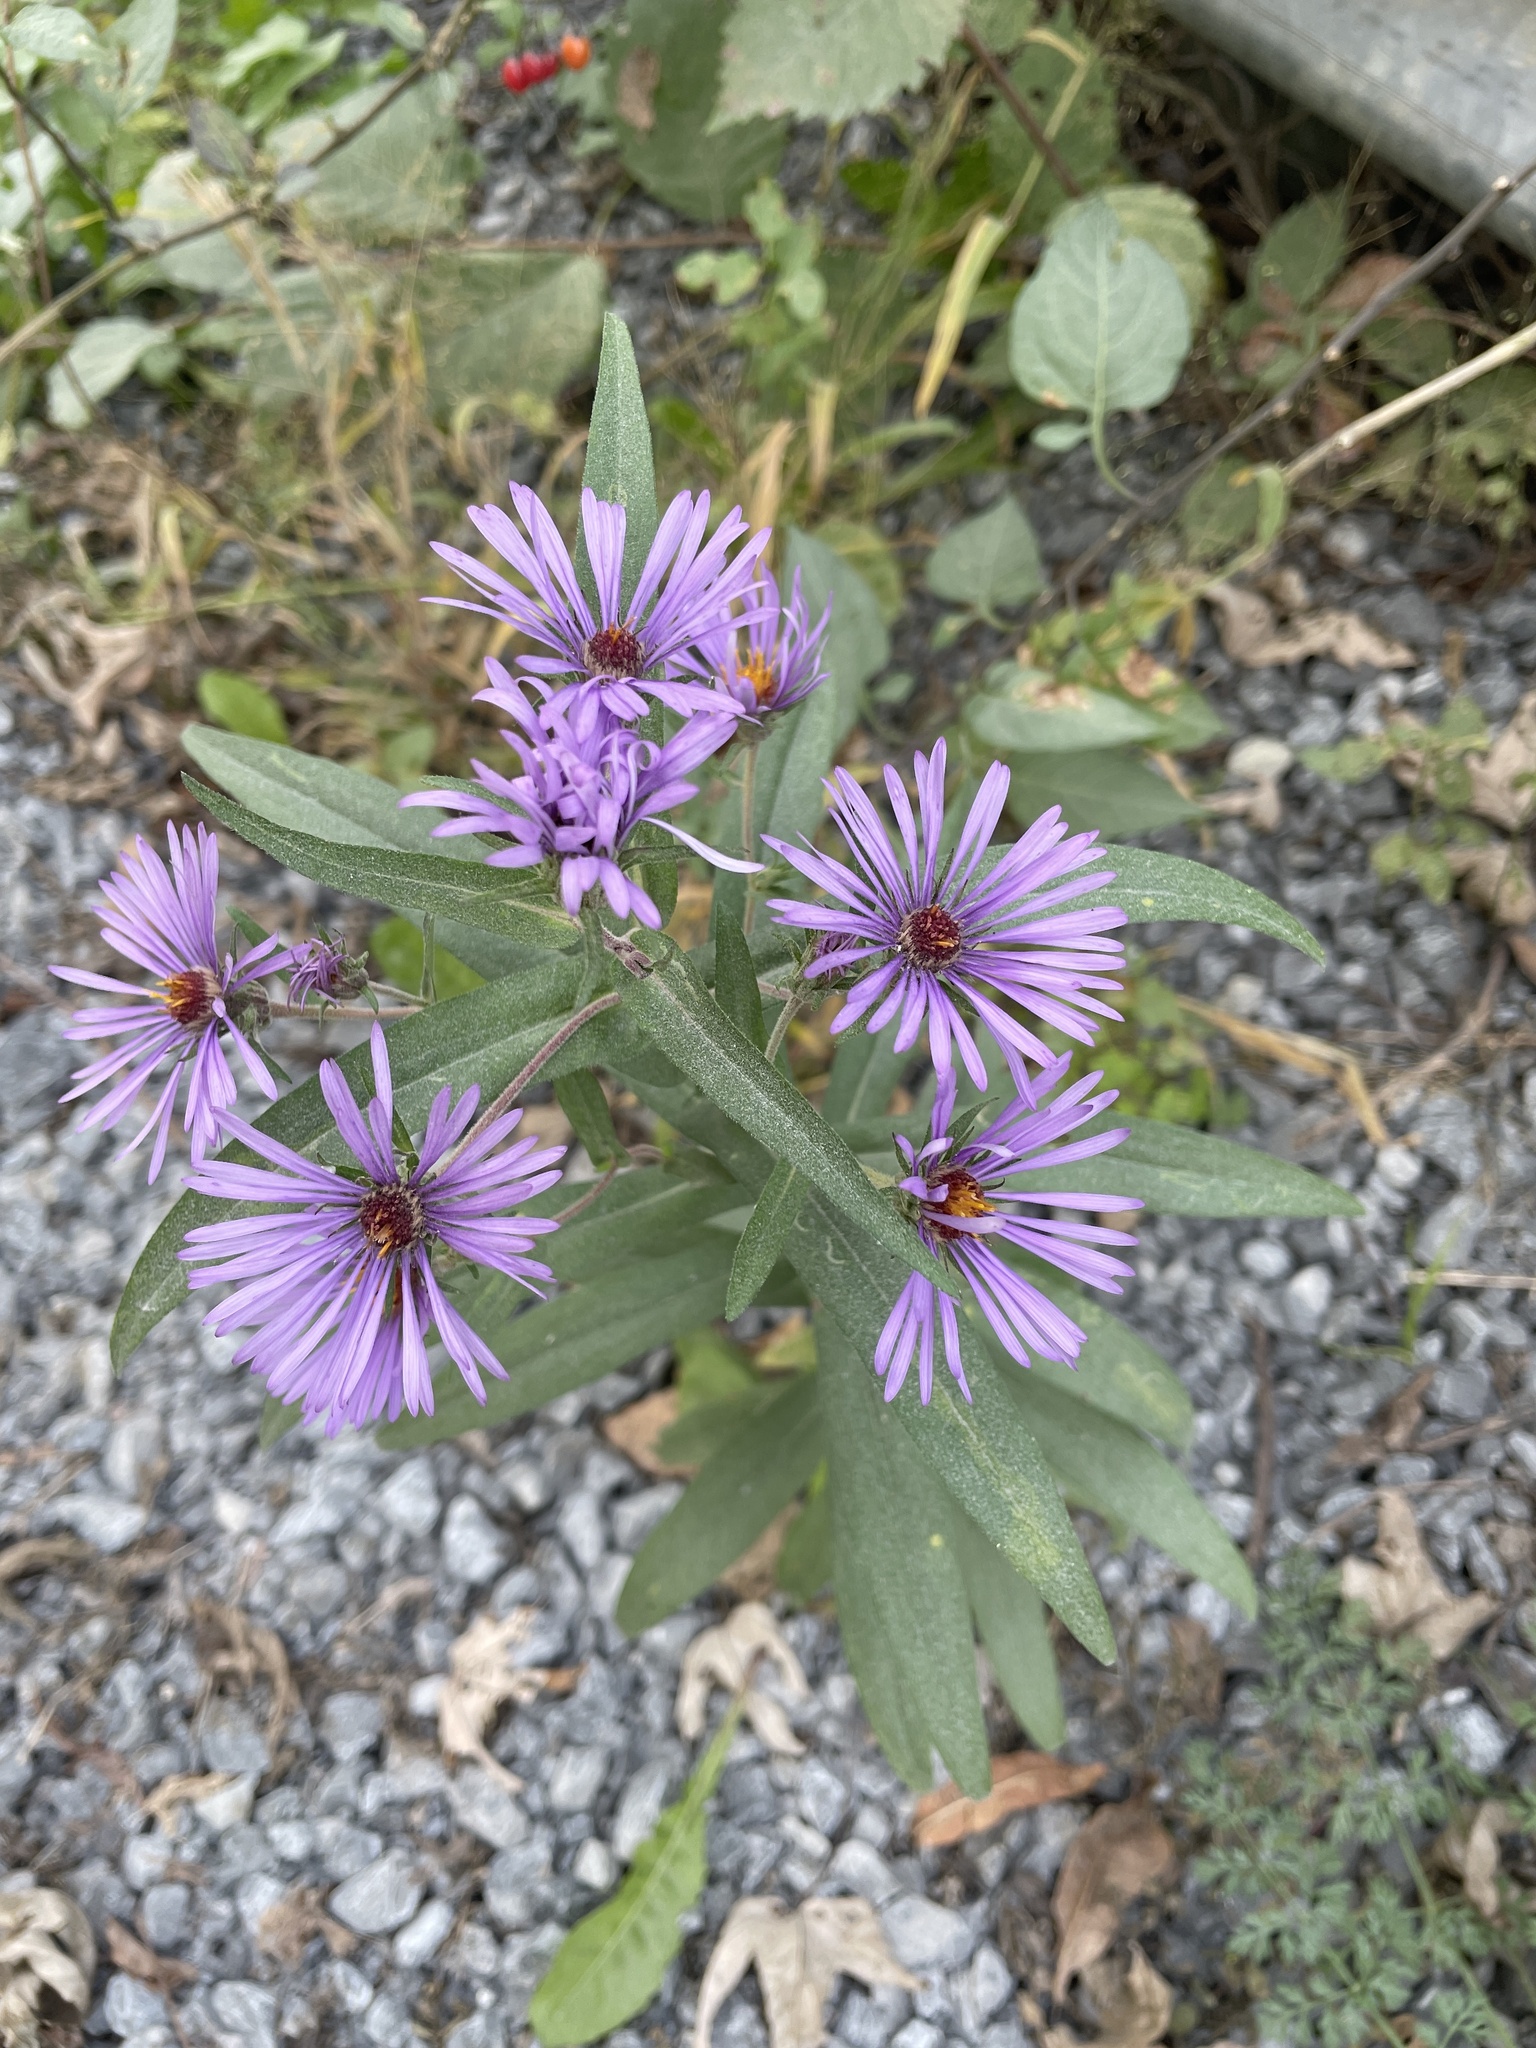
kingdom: Plantae
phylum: Tracheophyta
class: Magnoliopsida
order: Asterales
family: Asteraceae
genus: Symphyotrichum
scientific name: Symphyotrichum novae-angliae
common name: Michaelmas daisy
